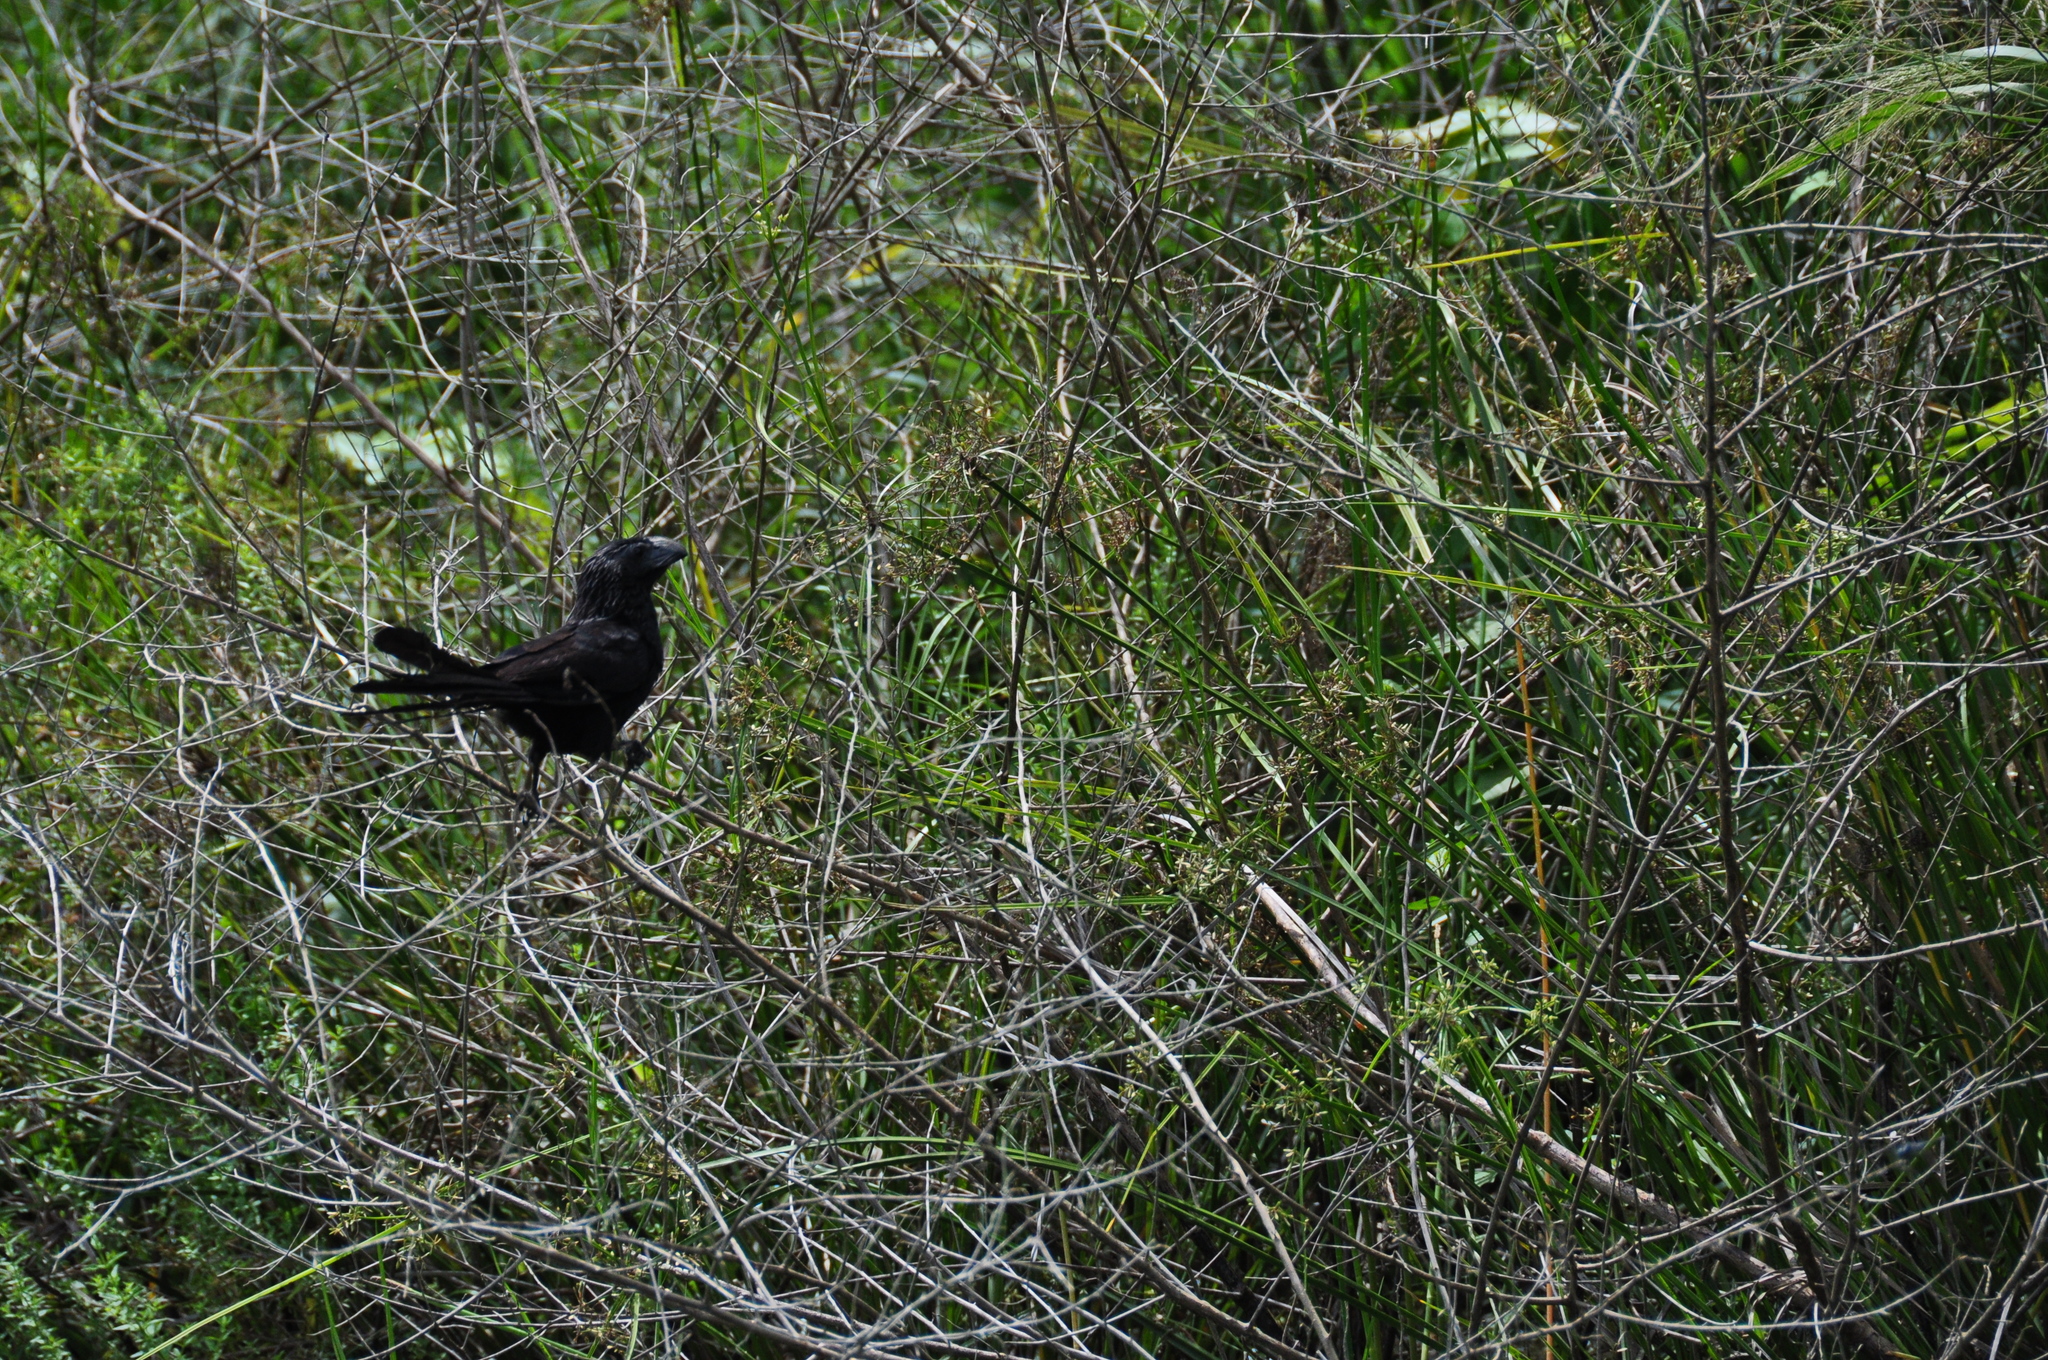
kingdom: Animalia
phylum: Chordata
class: Aves
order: Cuculiformes
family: Cuculidae
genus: Crotophaga
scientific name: Crotophaga sulcirostris
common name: Groove-billed ani
